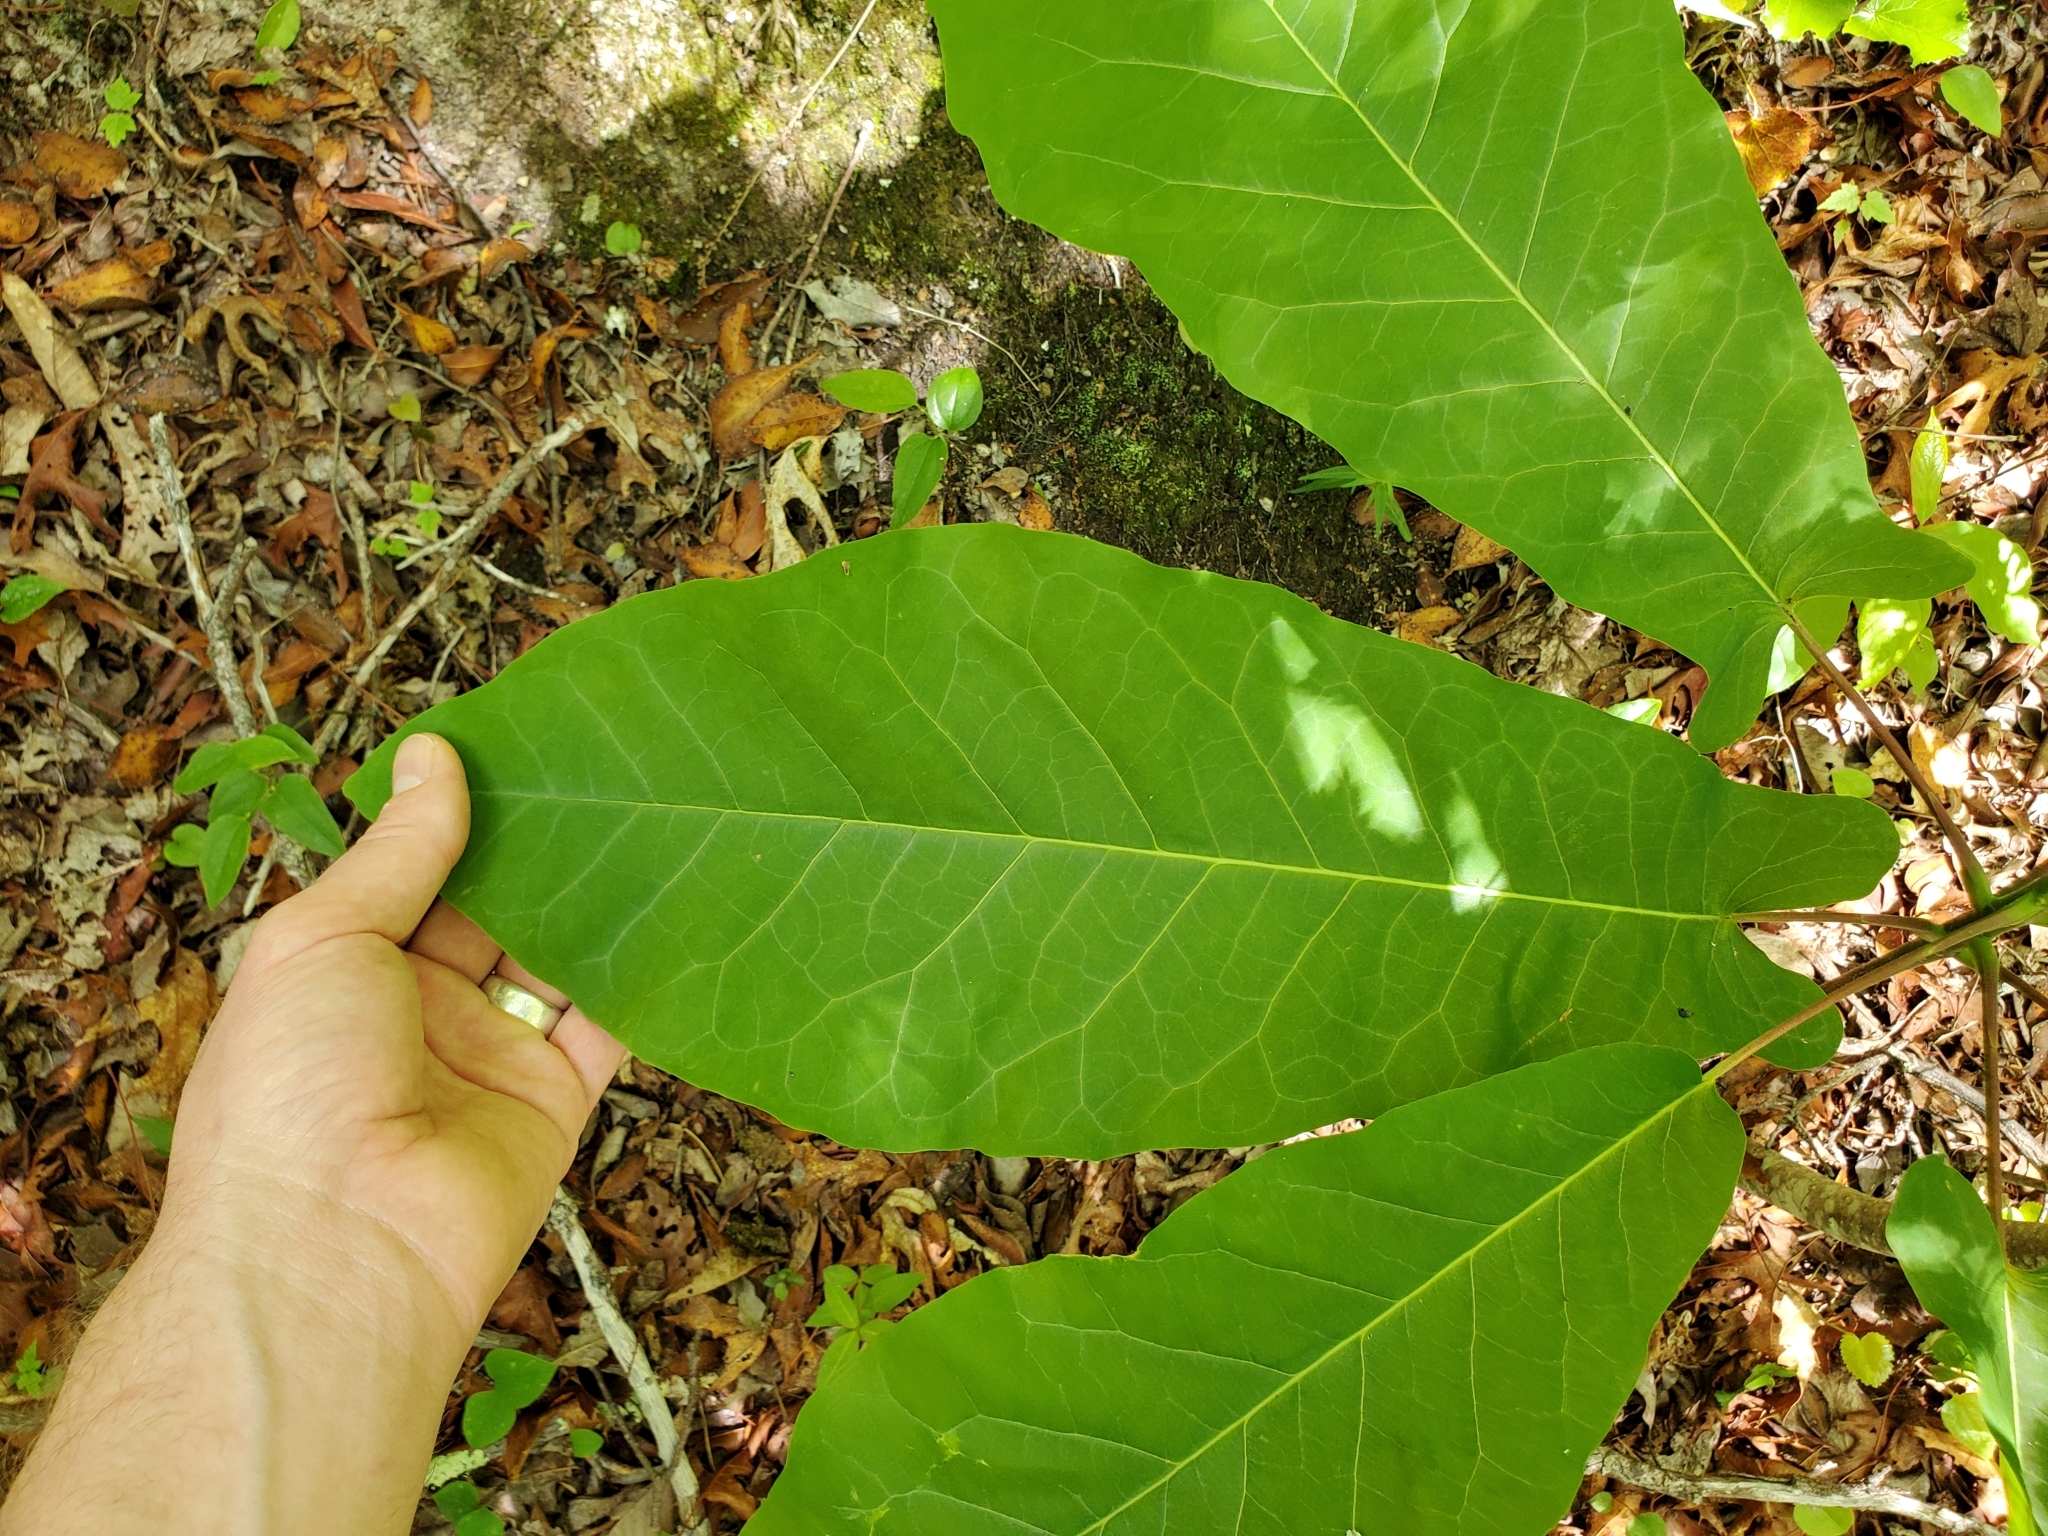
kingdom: Plantae
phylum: Tracheophyta
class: Magnoliopsida
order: Magnoliales
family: Magnoliaceae
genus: Magnolia
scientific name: Magnolia fraseri
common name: Fraser's magnolia
